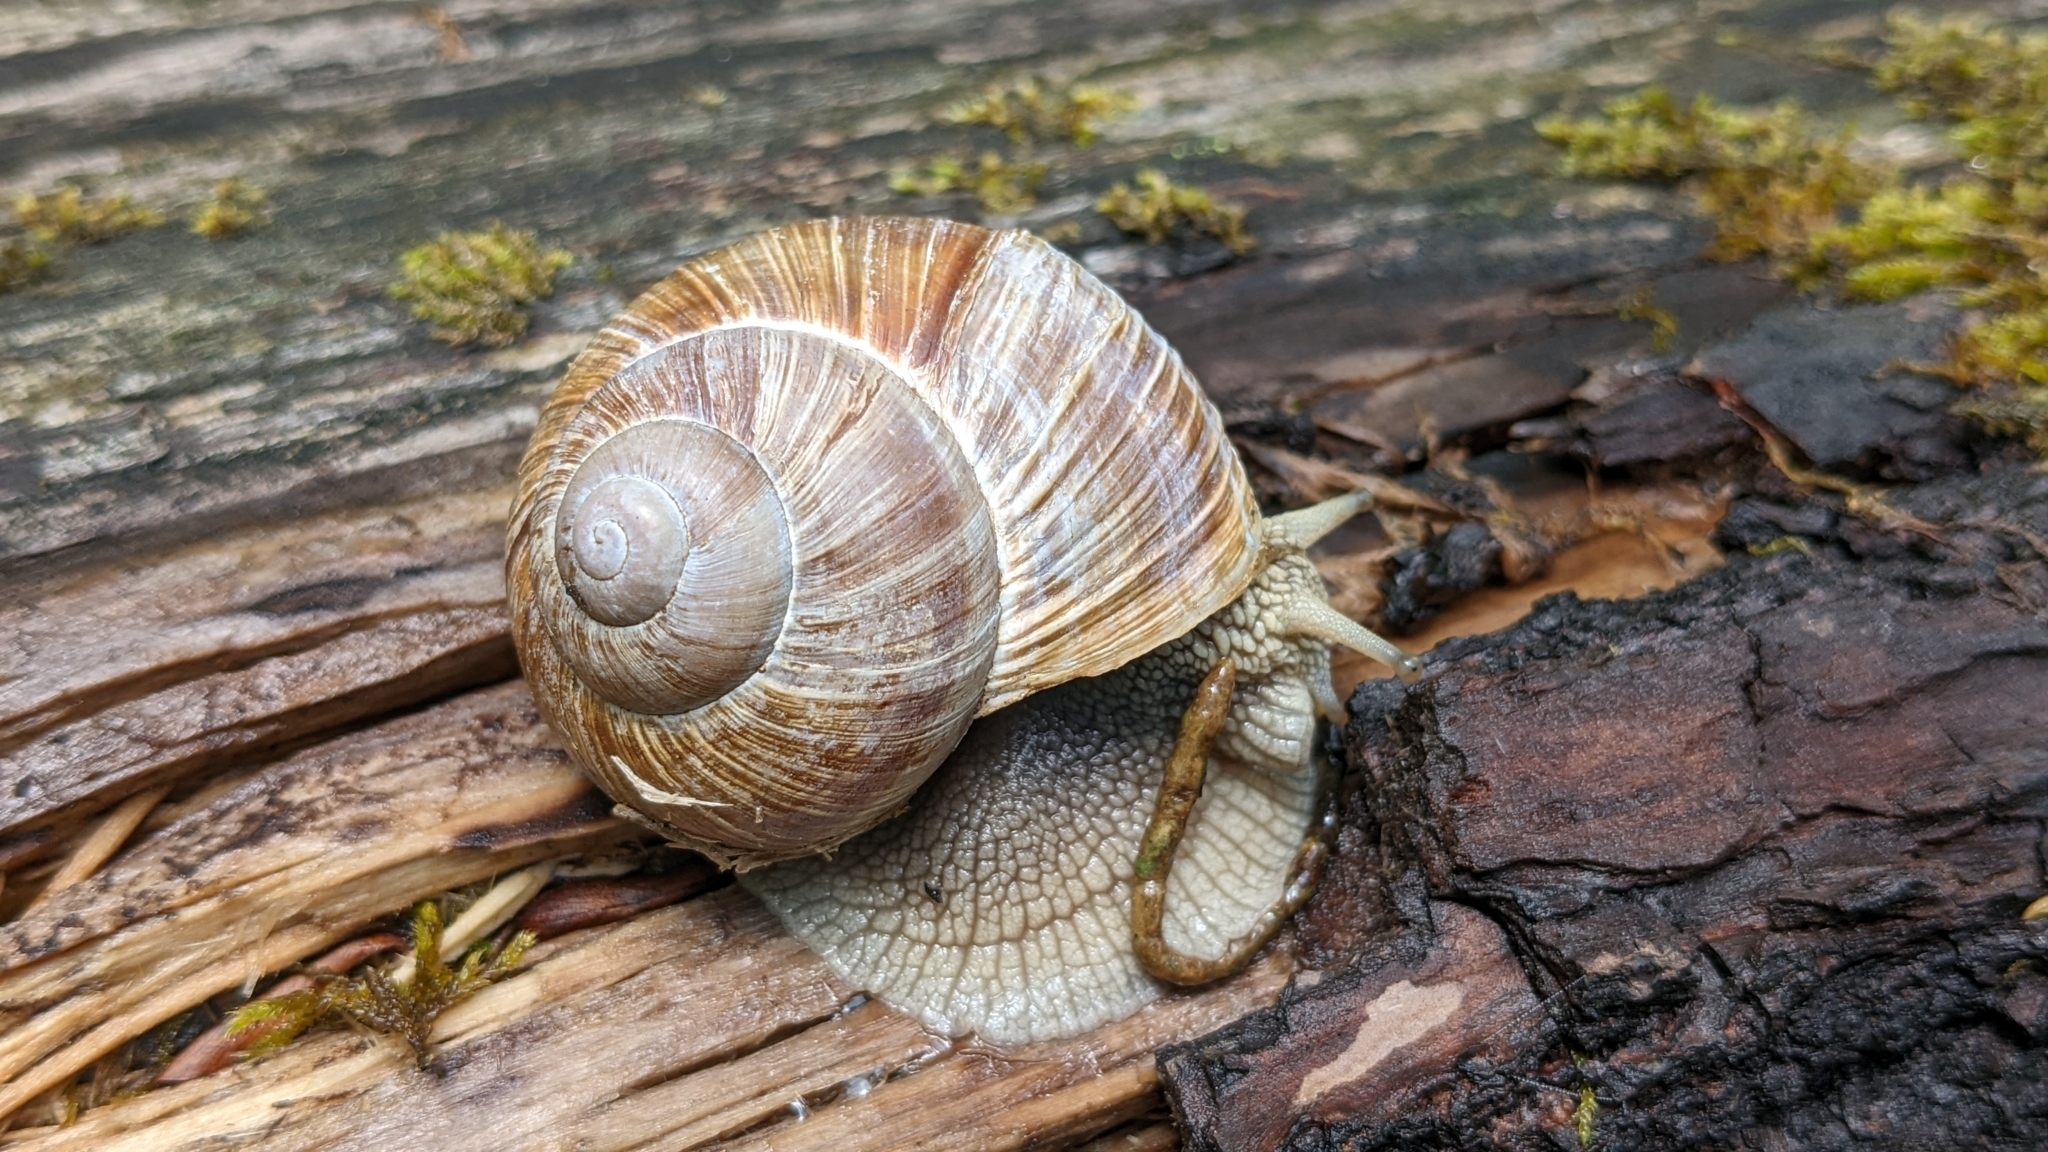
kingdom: Animalia
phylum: Mollusca
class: Gastropoda
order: Stylommatophora
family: Helicidae
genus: Helix
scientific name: Helix pomatia
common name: Roman snail
